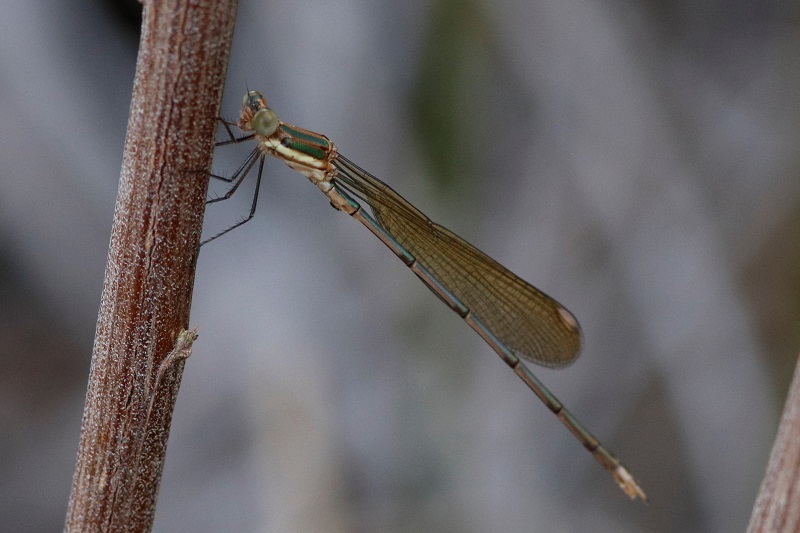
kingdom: Animalia
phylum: Arthropoda
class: Insecta
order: Odonata
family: Lestidae
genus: Lestes
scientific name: Lestes virgatus
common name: Smoky spreadwing
